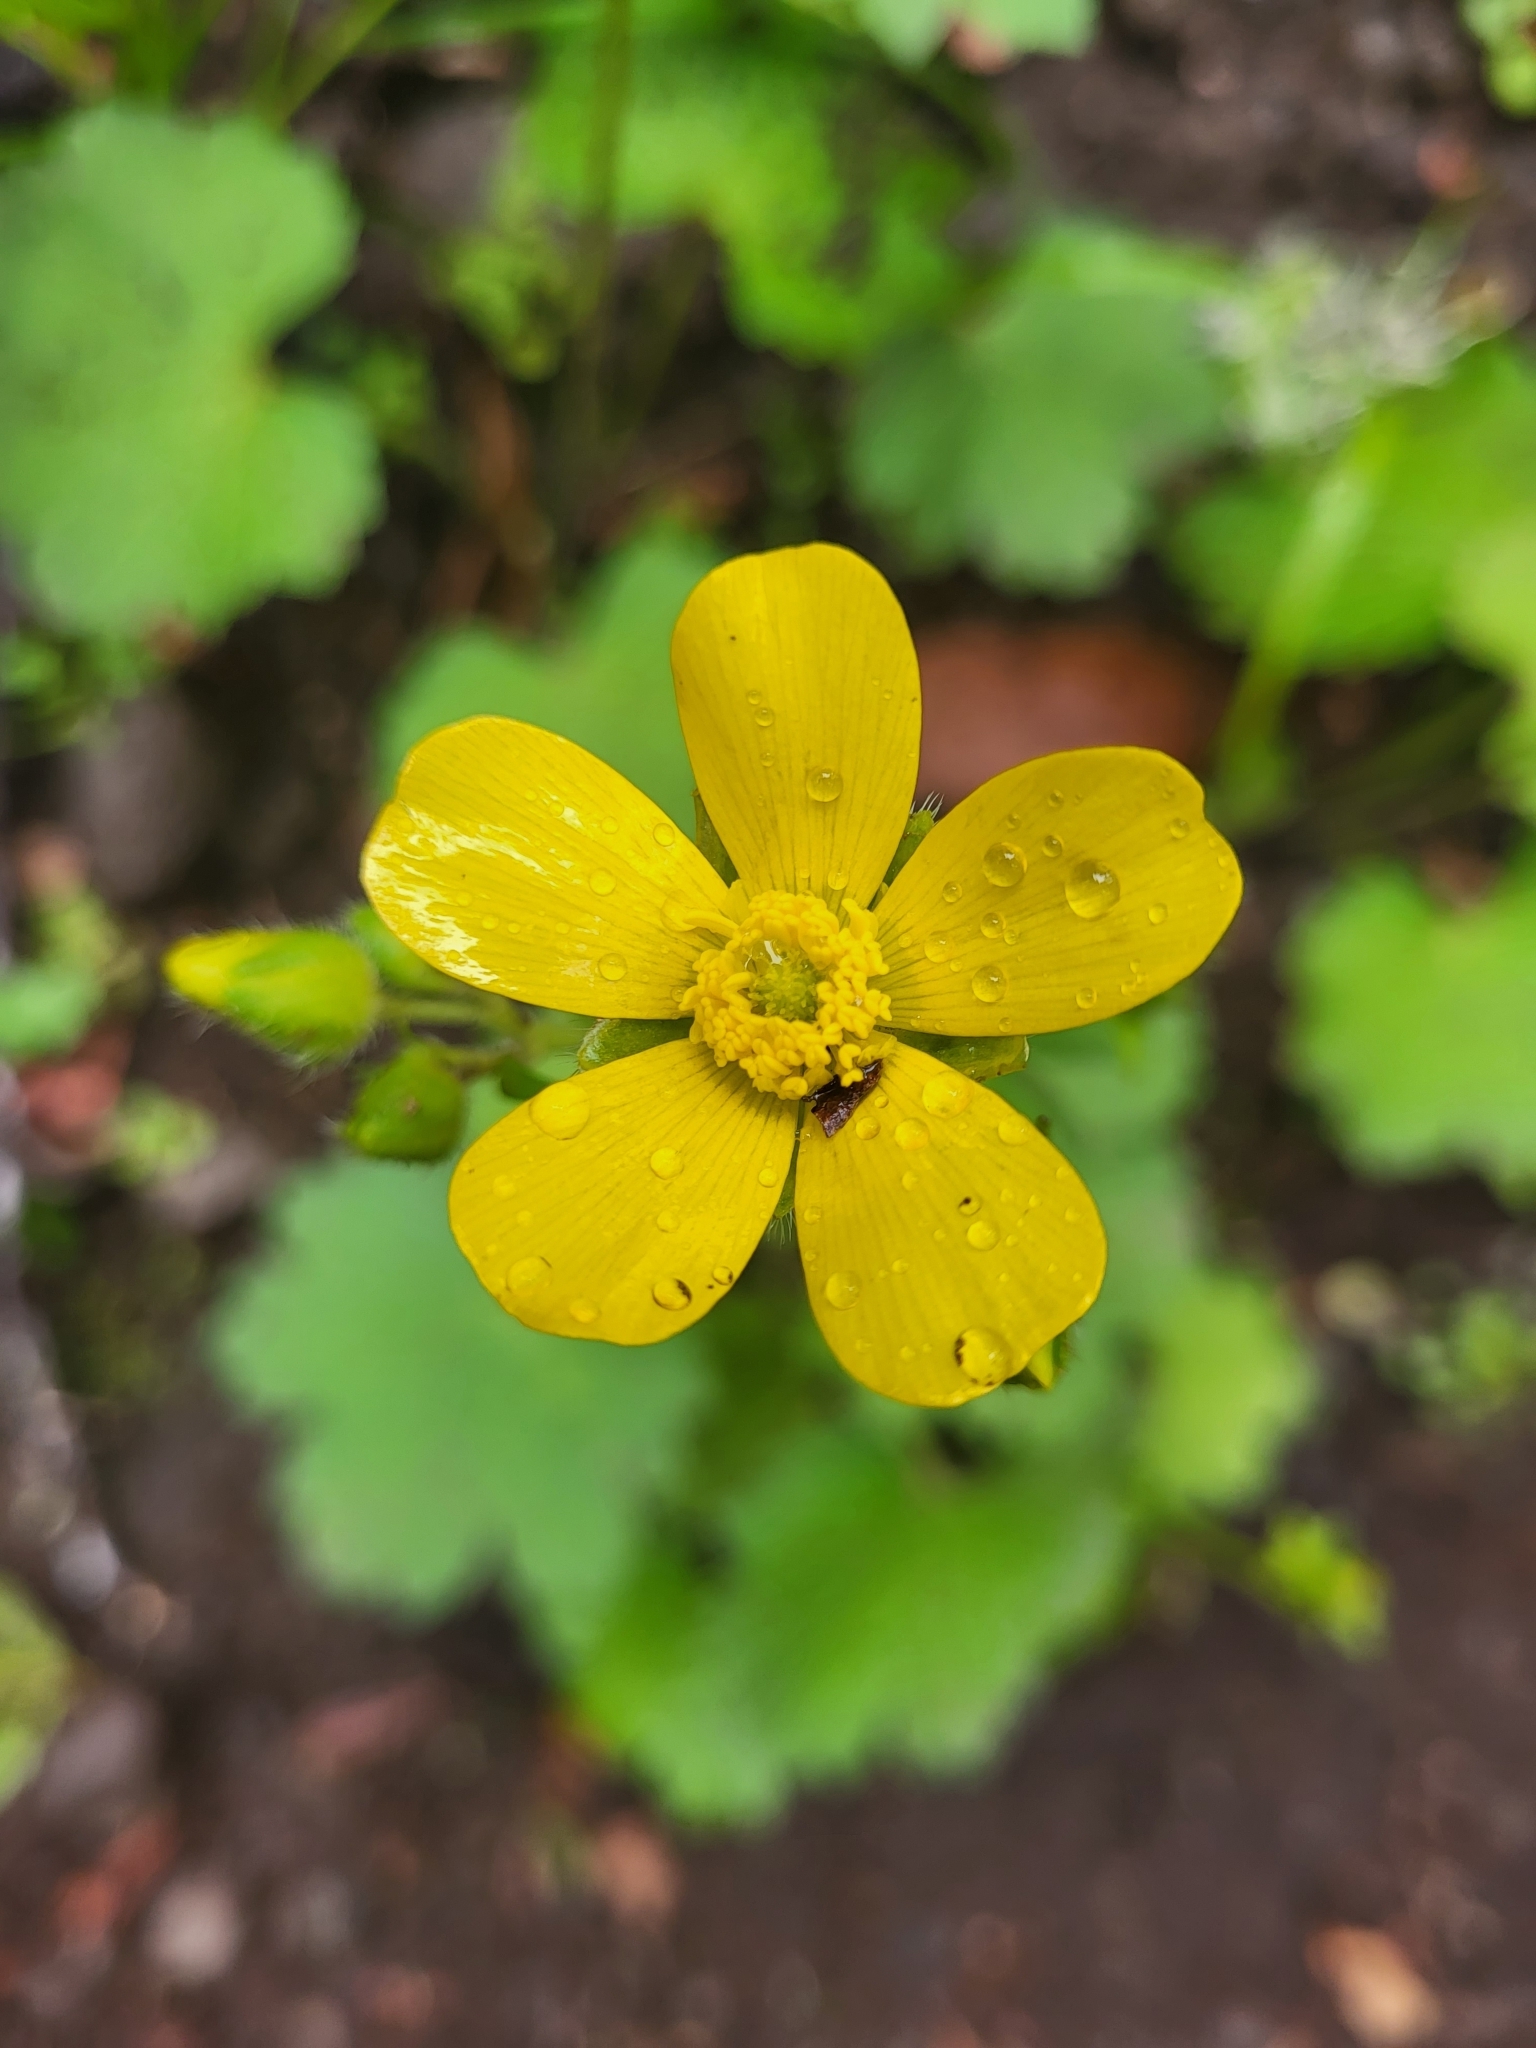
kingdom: Plantae
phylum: Tracheophyta
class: Magnoliopsida
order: Ranunculales
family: Ranunculaceae
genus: Ranunculus
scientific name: Ranunculus cortusifolius
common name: Azores buttercup
